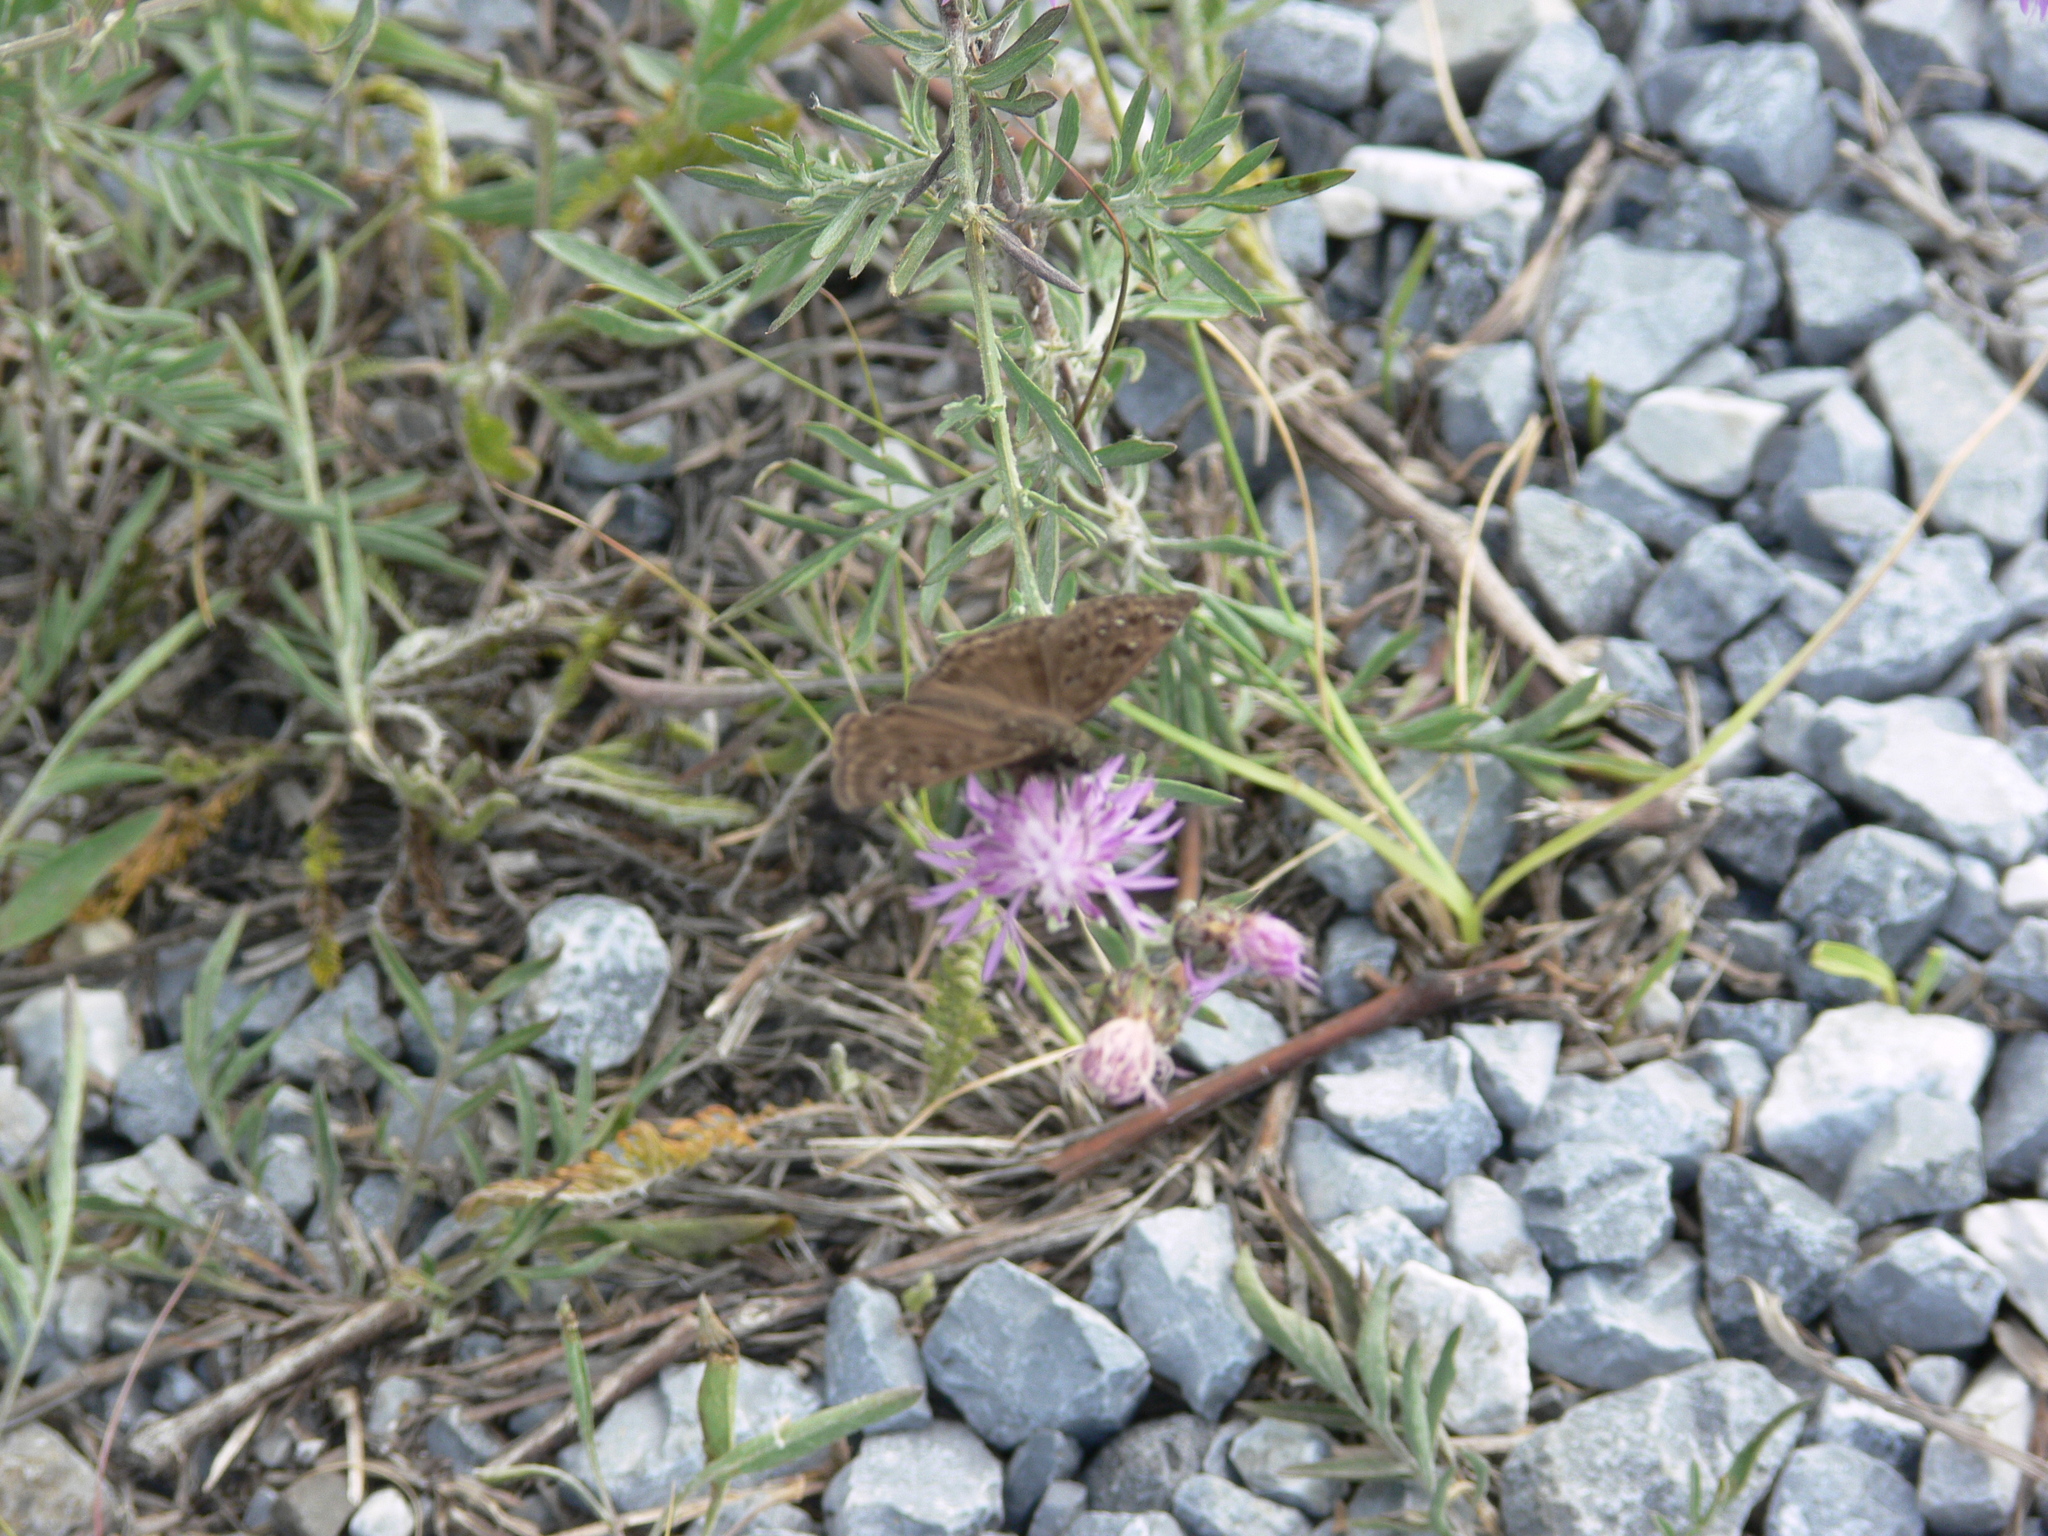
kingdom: Animalia
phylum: Arthropoda
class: Insecta
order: Lepidoptera
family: Hesperiidae
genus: Erynnis
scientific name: Erynnis horatius
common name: Horace's duskywing
